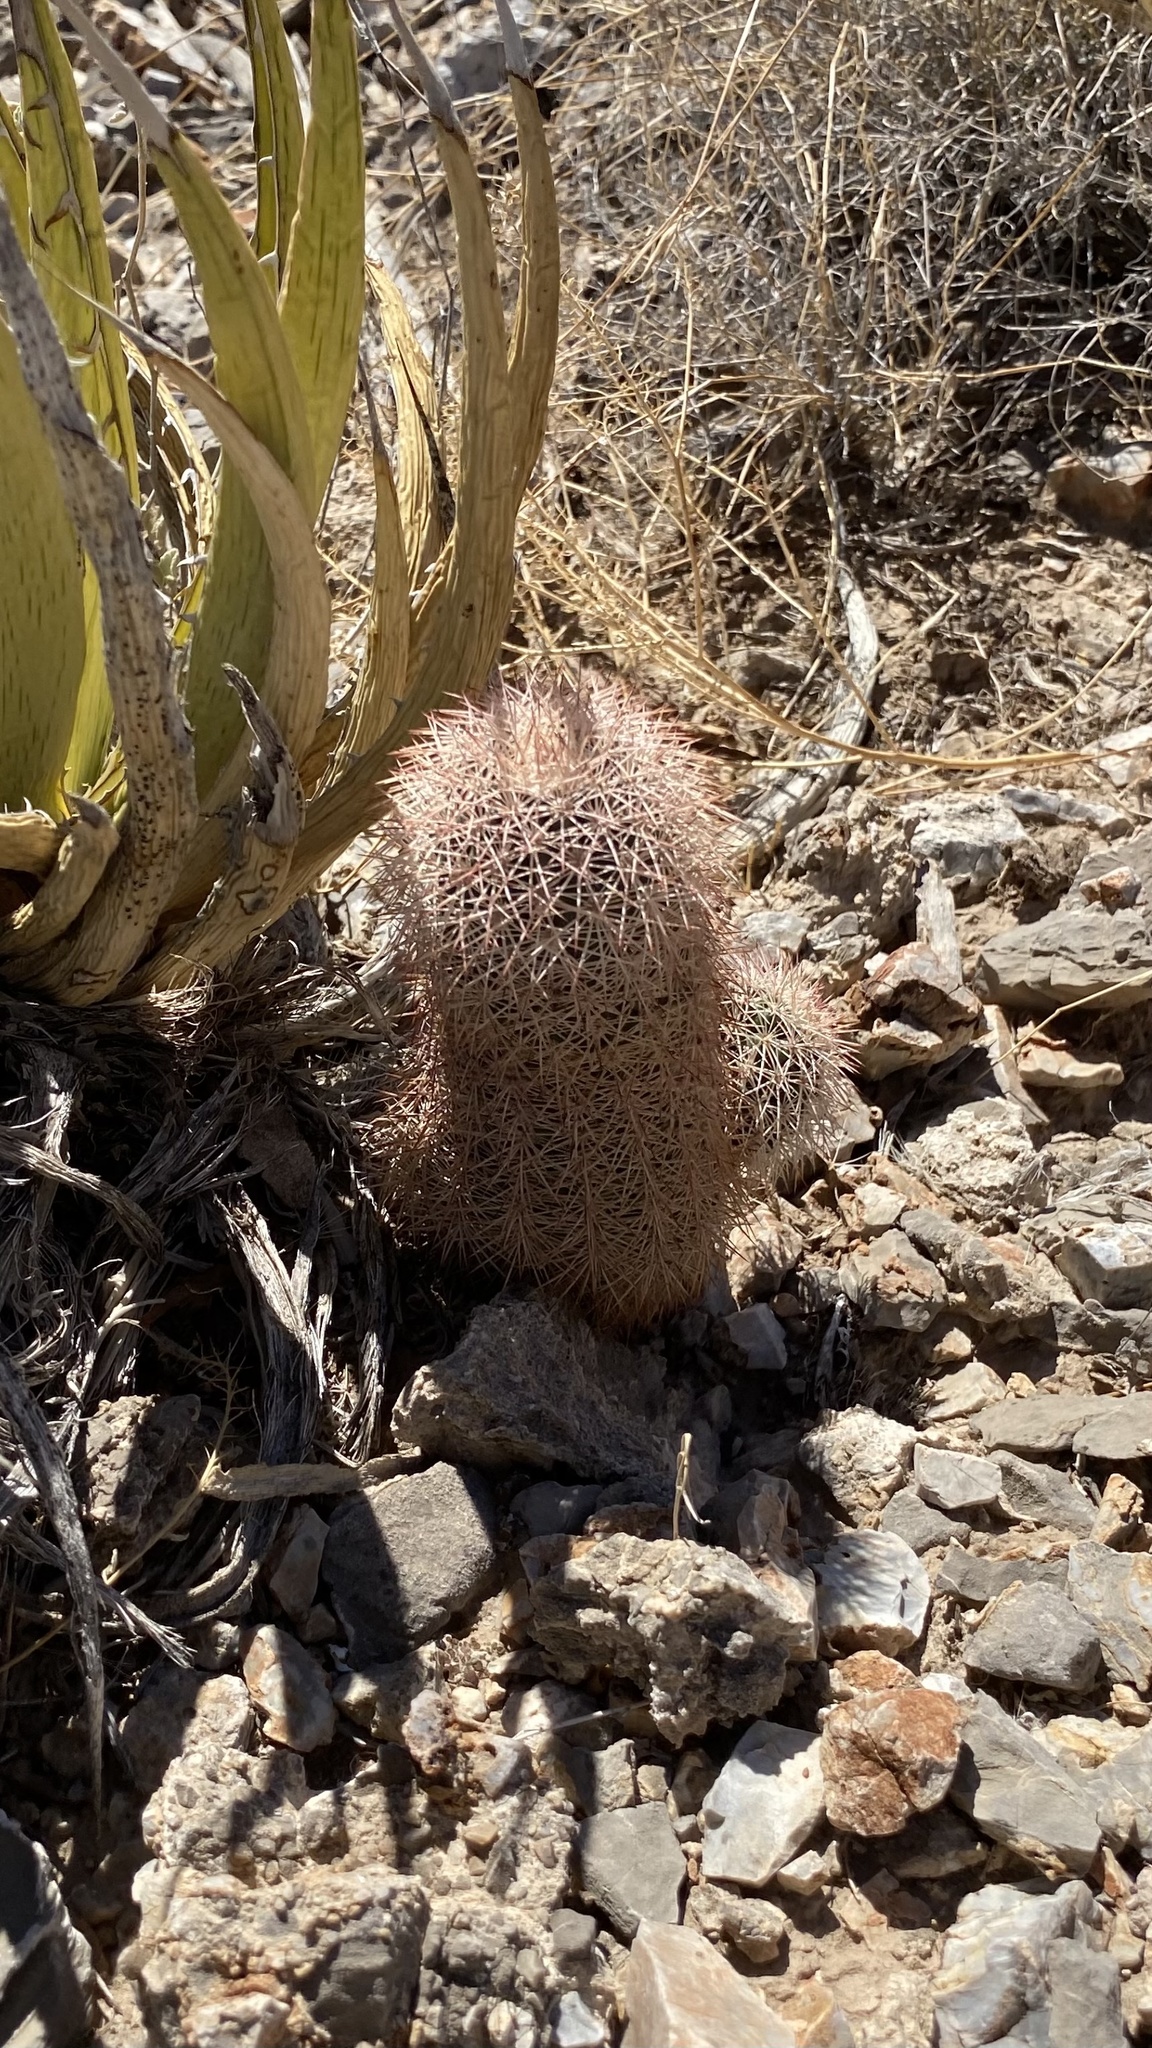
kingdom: Plantae
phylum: Tracheophyta
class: Magnoliopsida
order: Caryophyllales
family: Cactaceae
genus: Echinocereus
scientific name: Echinocereus dasyacanthus
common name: Spiny hedgehog cactus
